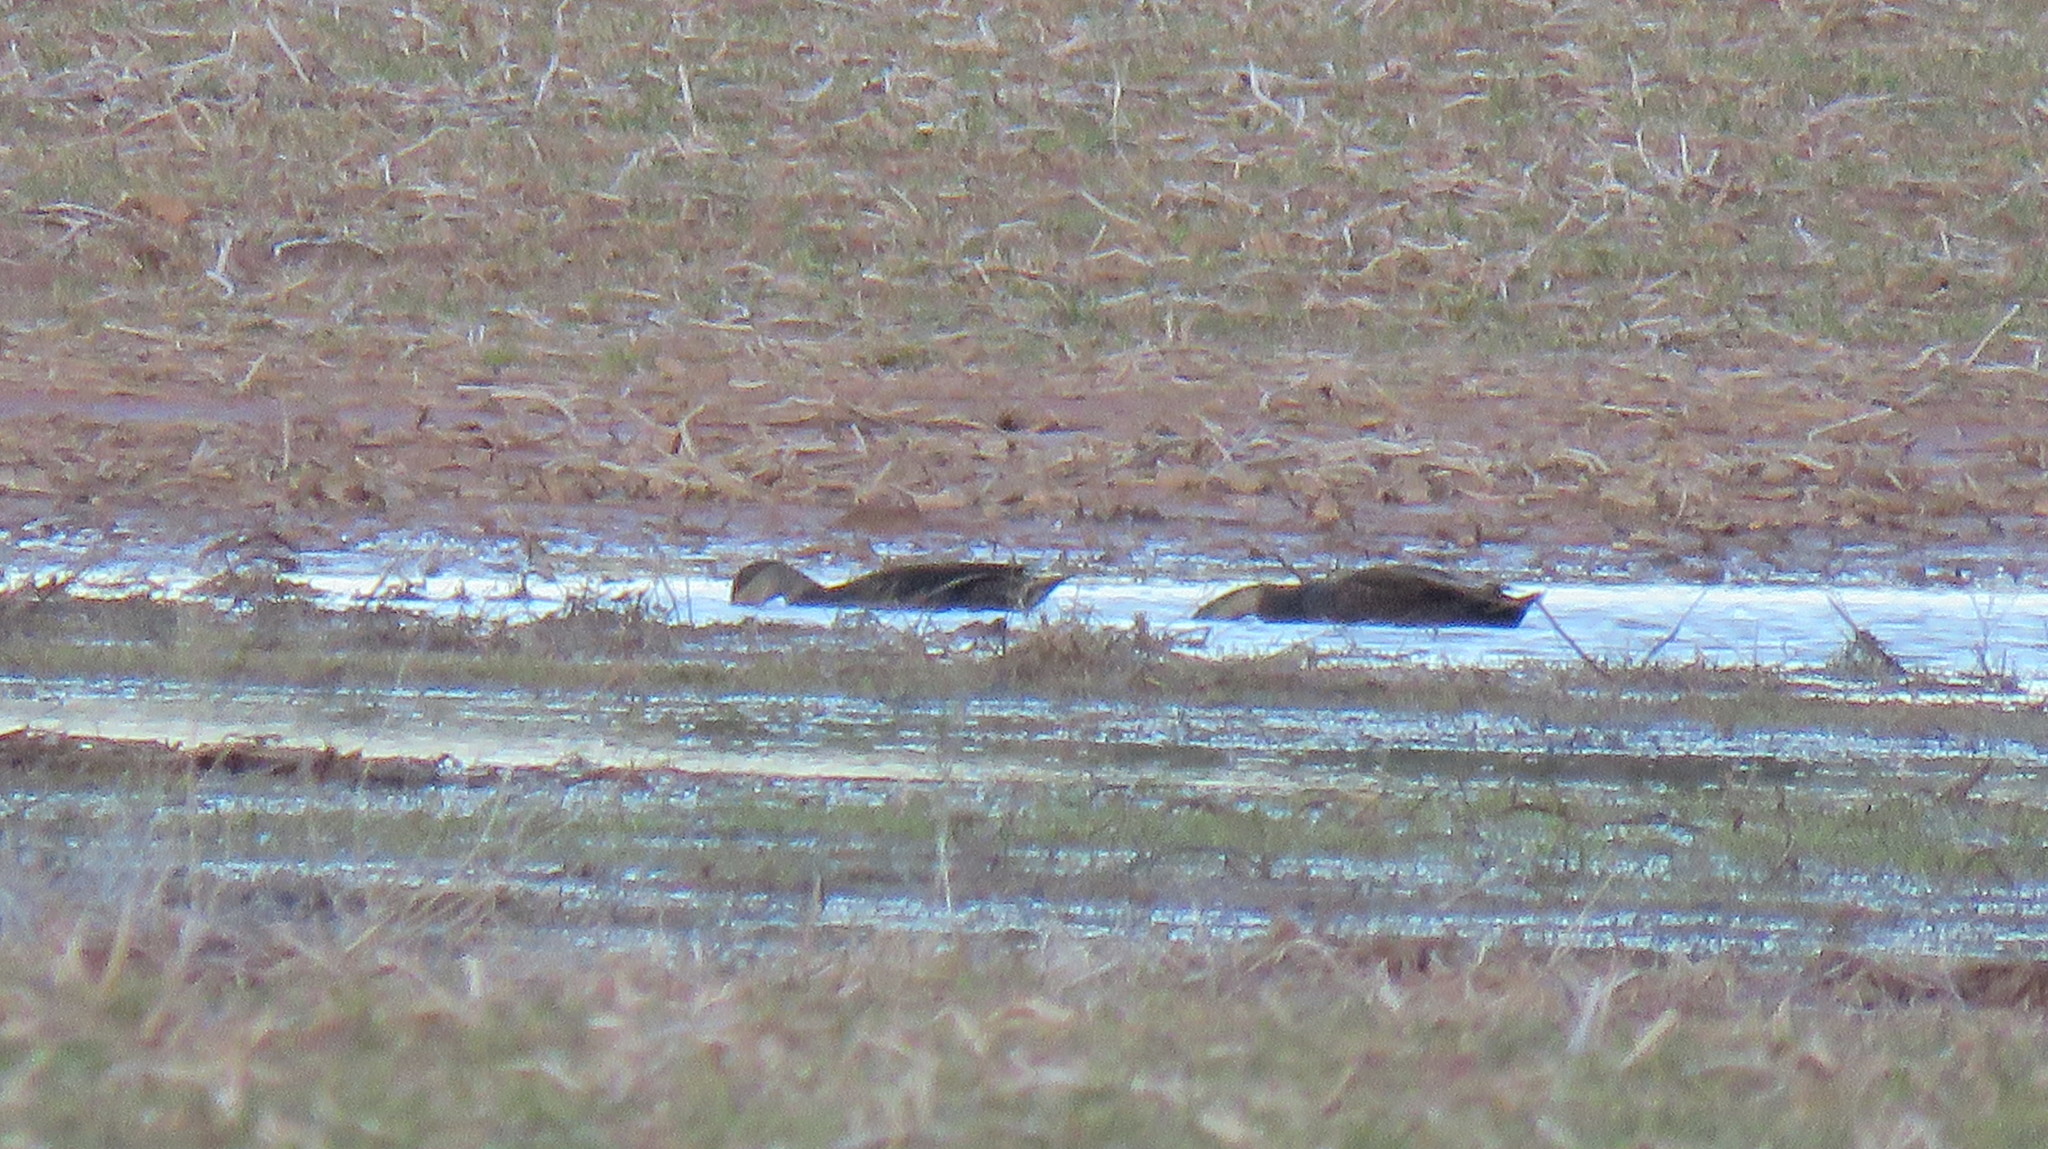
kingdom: Animalia
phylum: Chordata
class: Aves
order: Anseriformes
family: Anatidae
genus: Anas
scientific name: Anas rubripes
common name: American black duck
